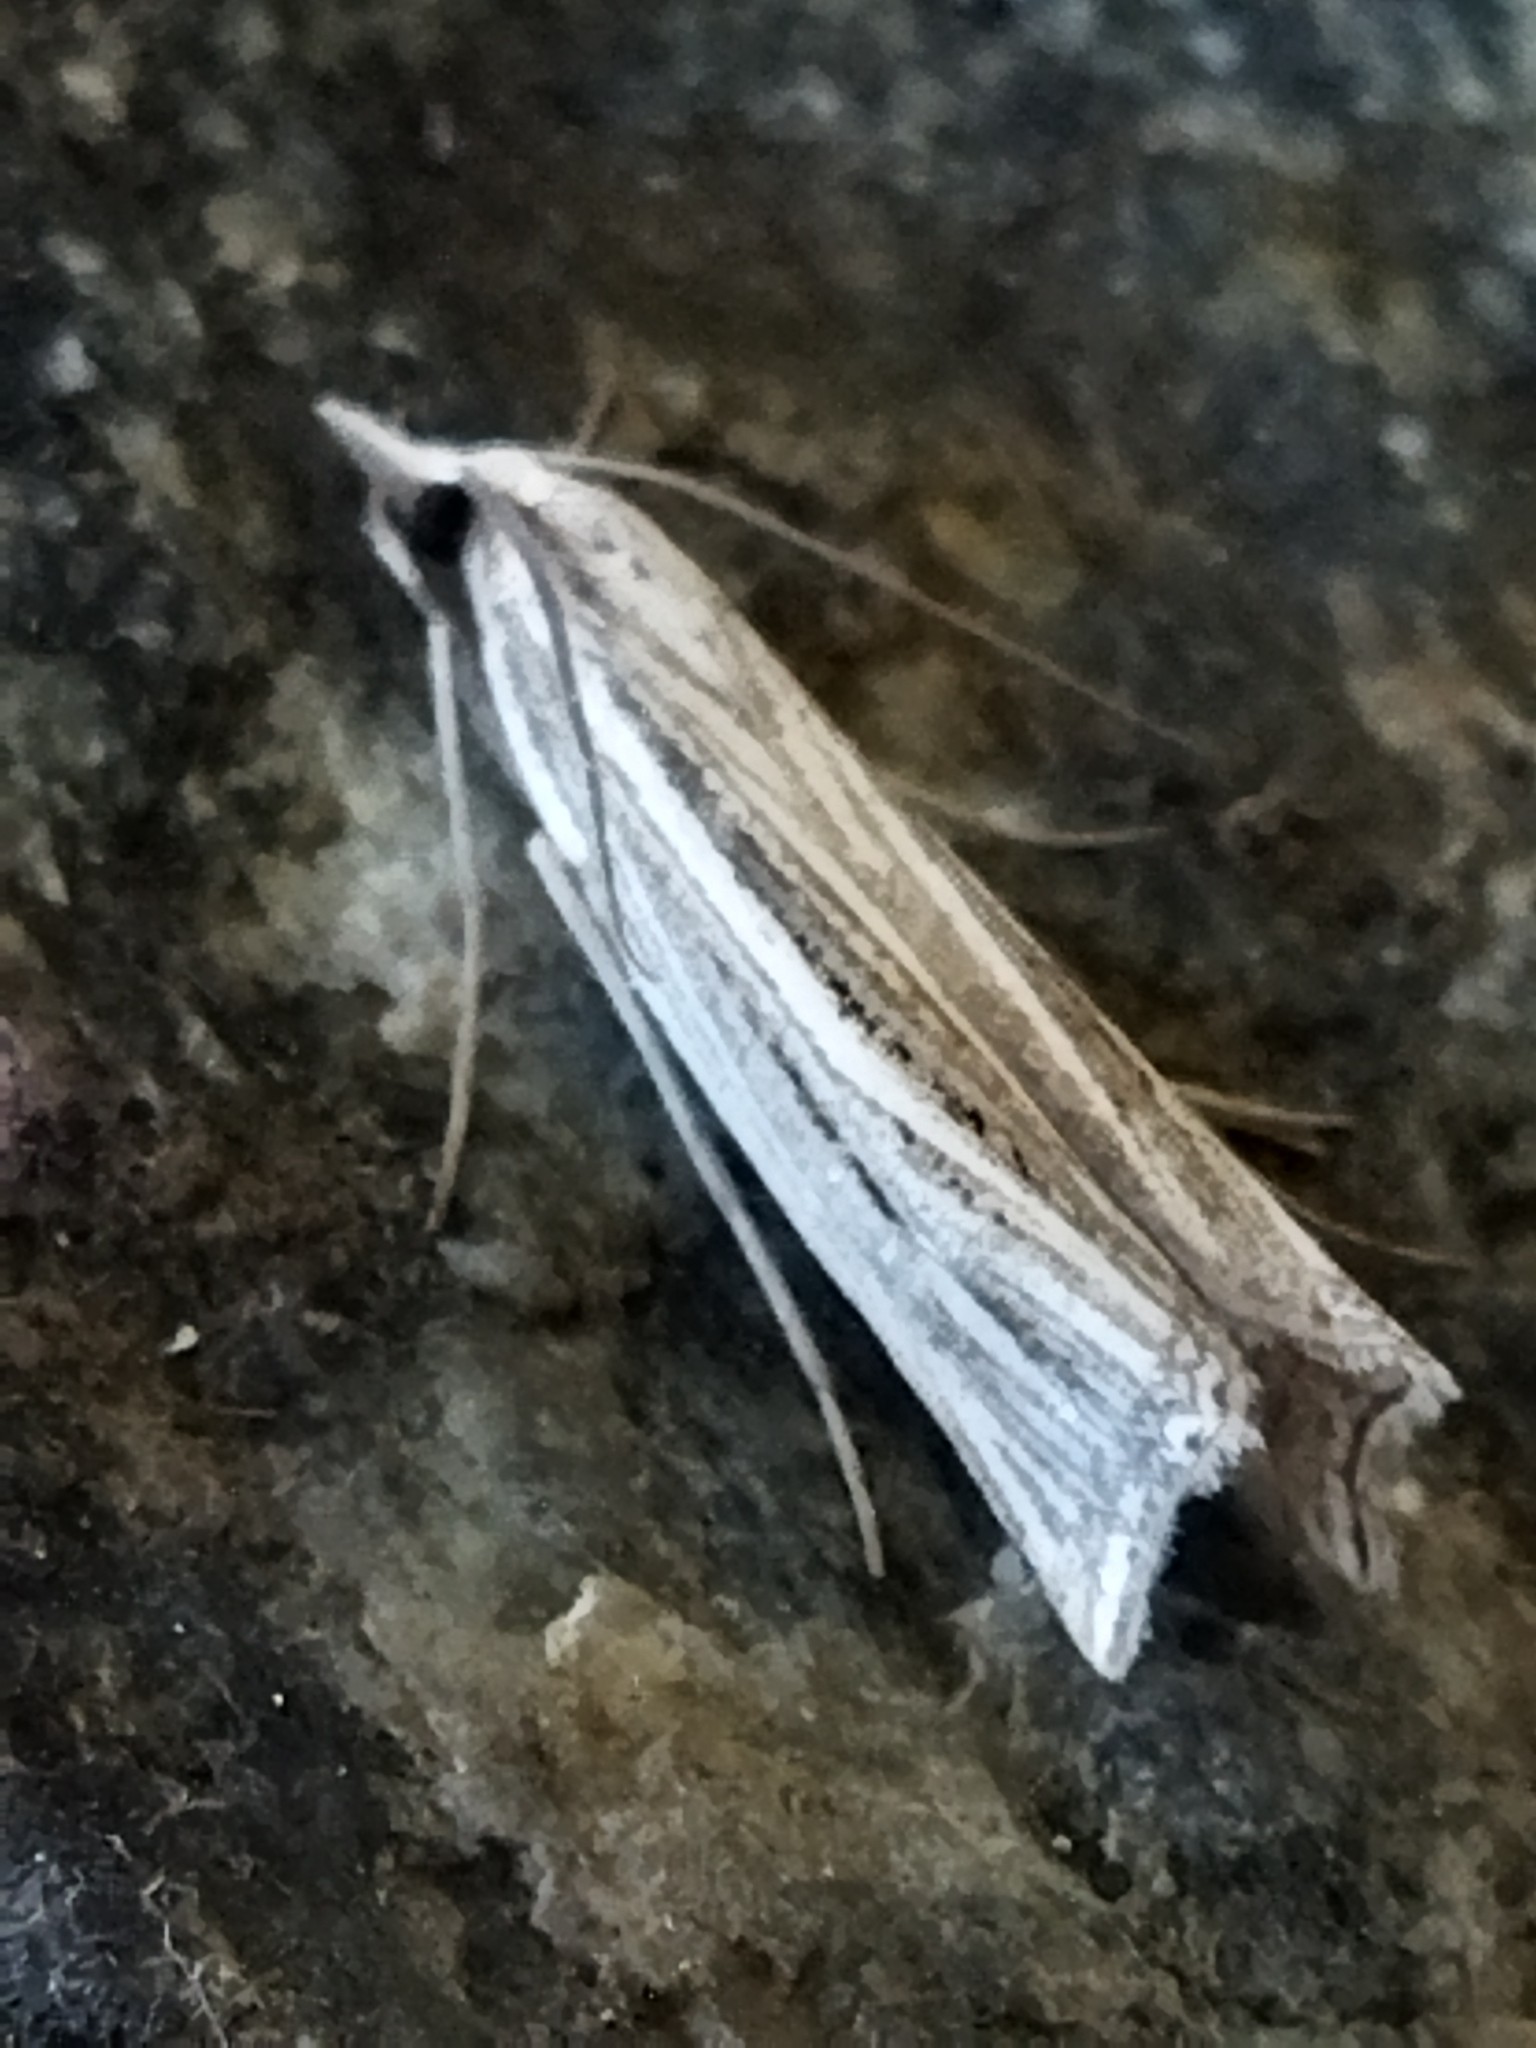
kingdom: Animalia
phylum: Arthropoda
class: Insecta
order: Lepidoptera
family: Crambidae
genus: Ancylolomia
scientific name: Ancylolomia
